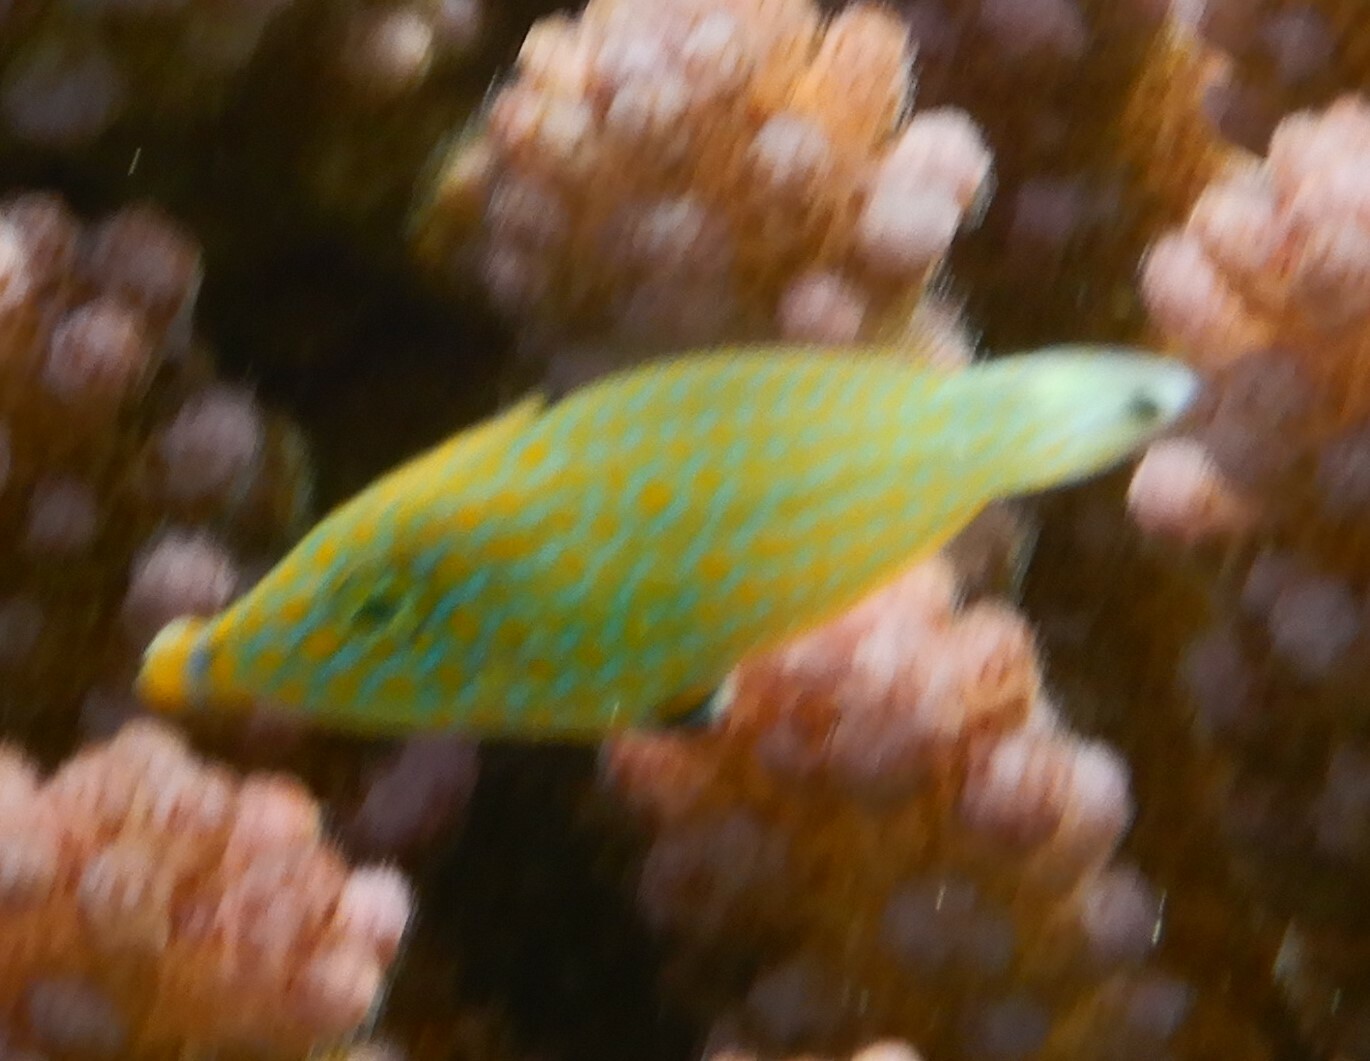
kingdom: Animalia
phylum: Chordata
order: Tetraodontiformes
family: Monacanthidae
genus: Oxymonacanthus
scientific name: Oxymonacanthus halli
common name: Red sea harlequin filefish
